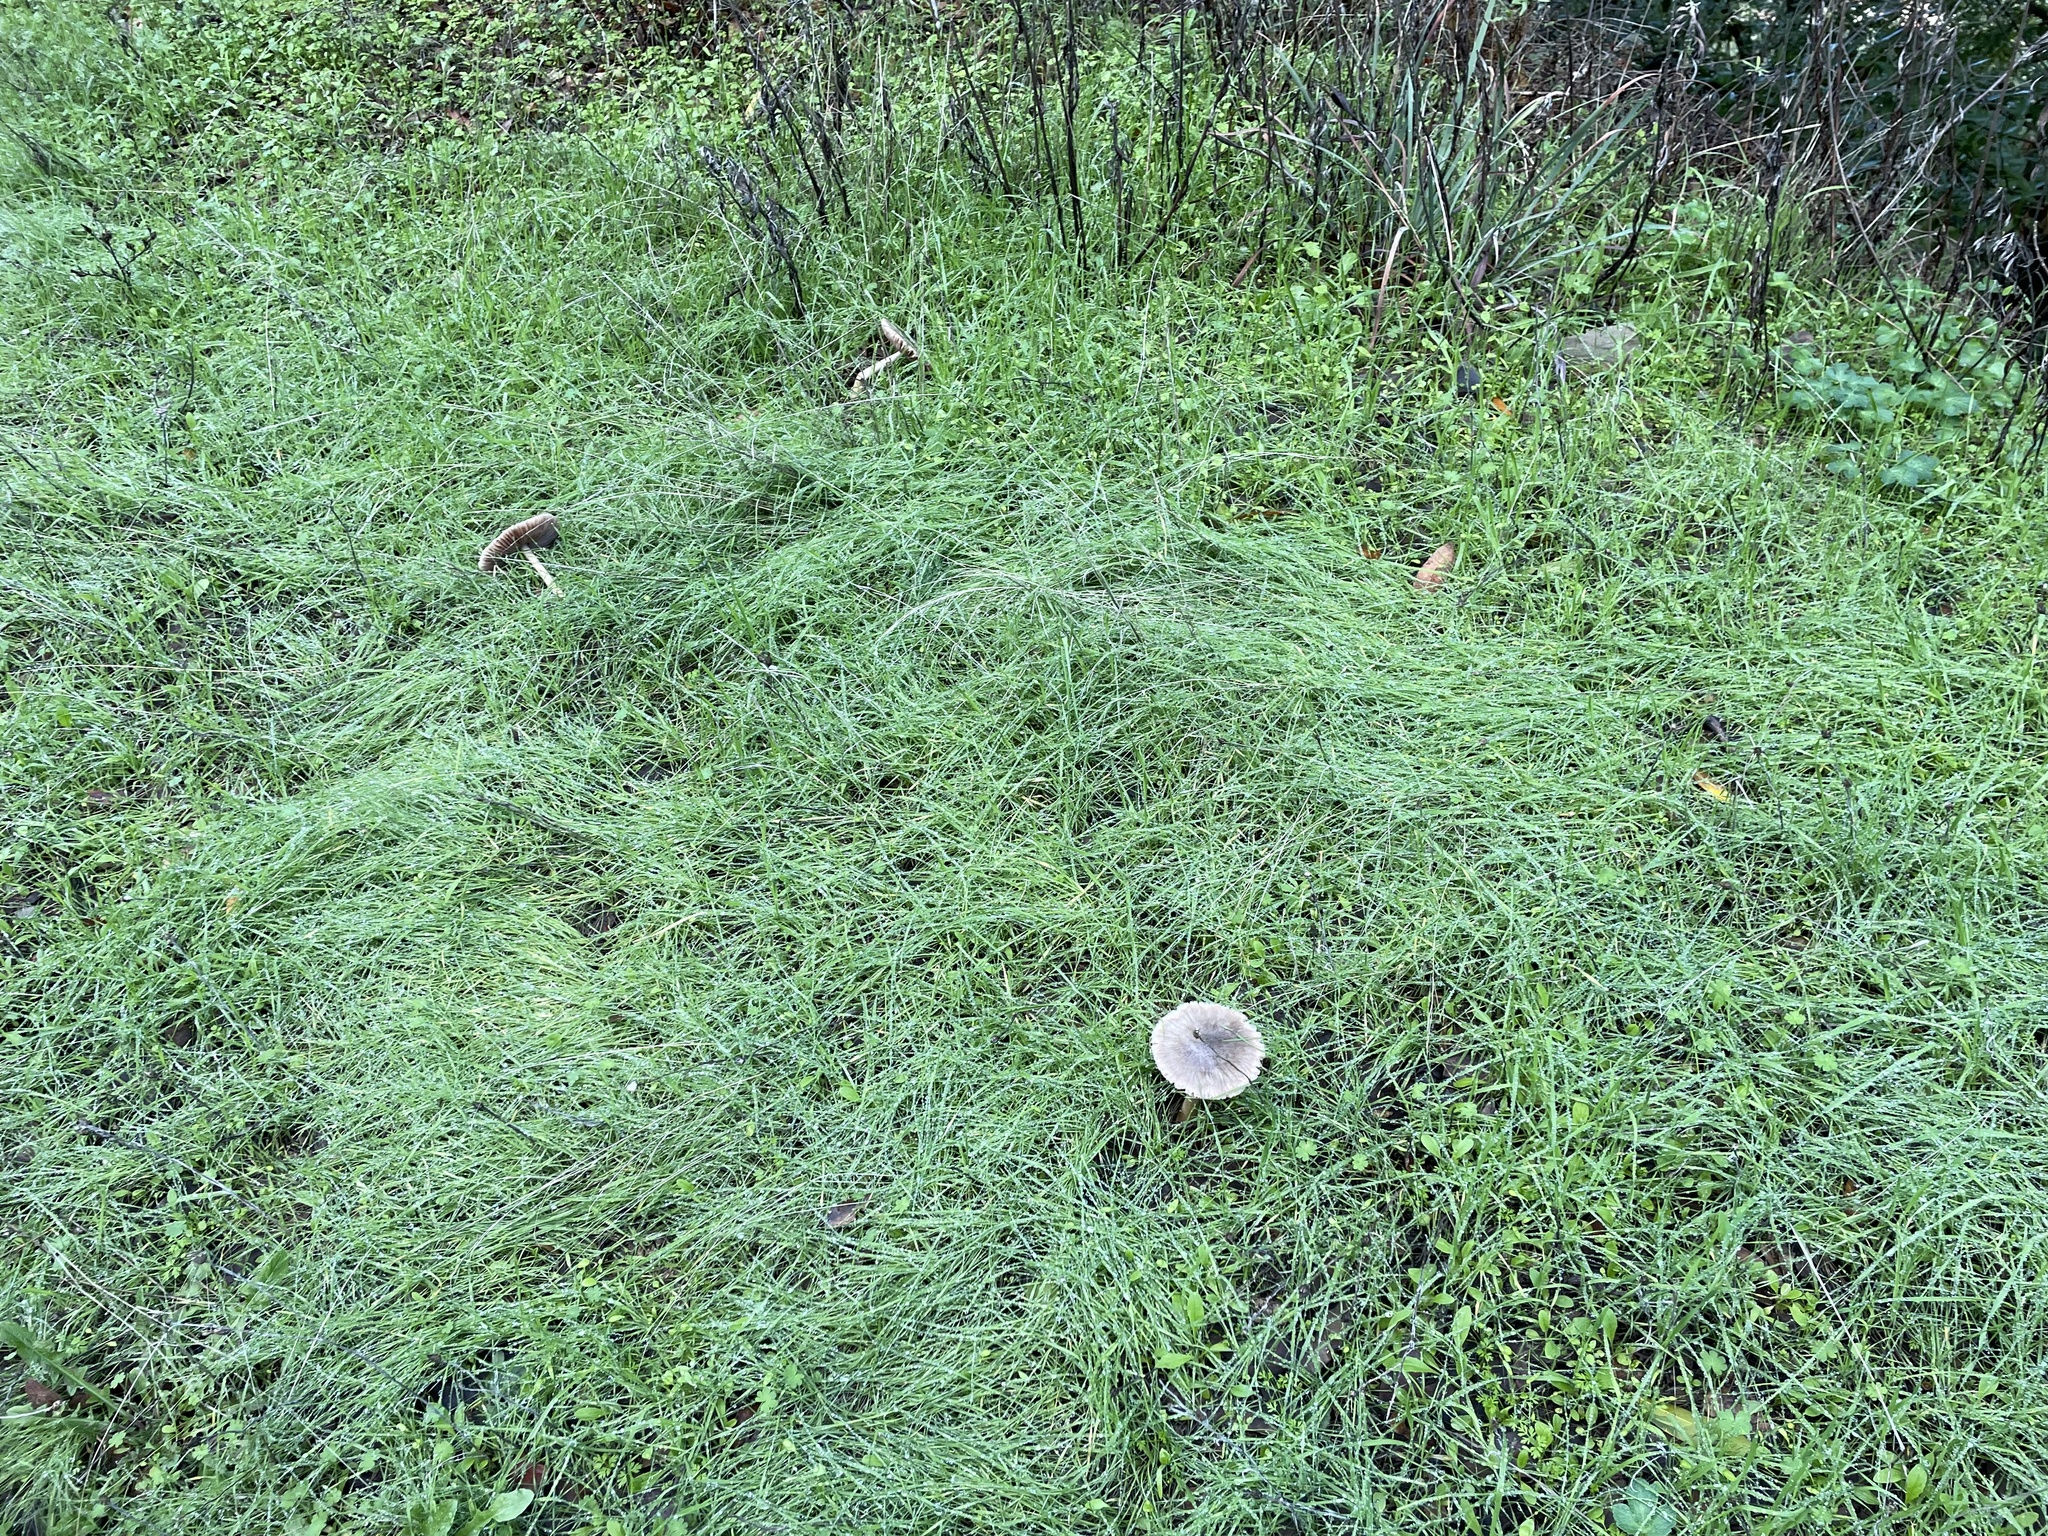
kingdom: Fungi
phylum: Basidiomycota
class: Agaricomycetes
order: Agaricales
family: Pluteaceae
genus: Volvopluteus
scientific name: Volvopluteus gloiocephalus
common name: Stubble rosegill
